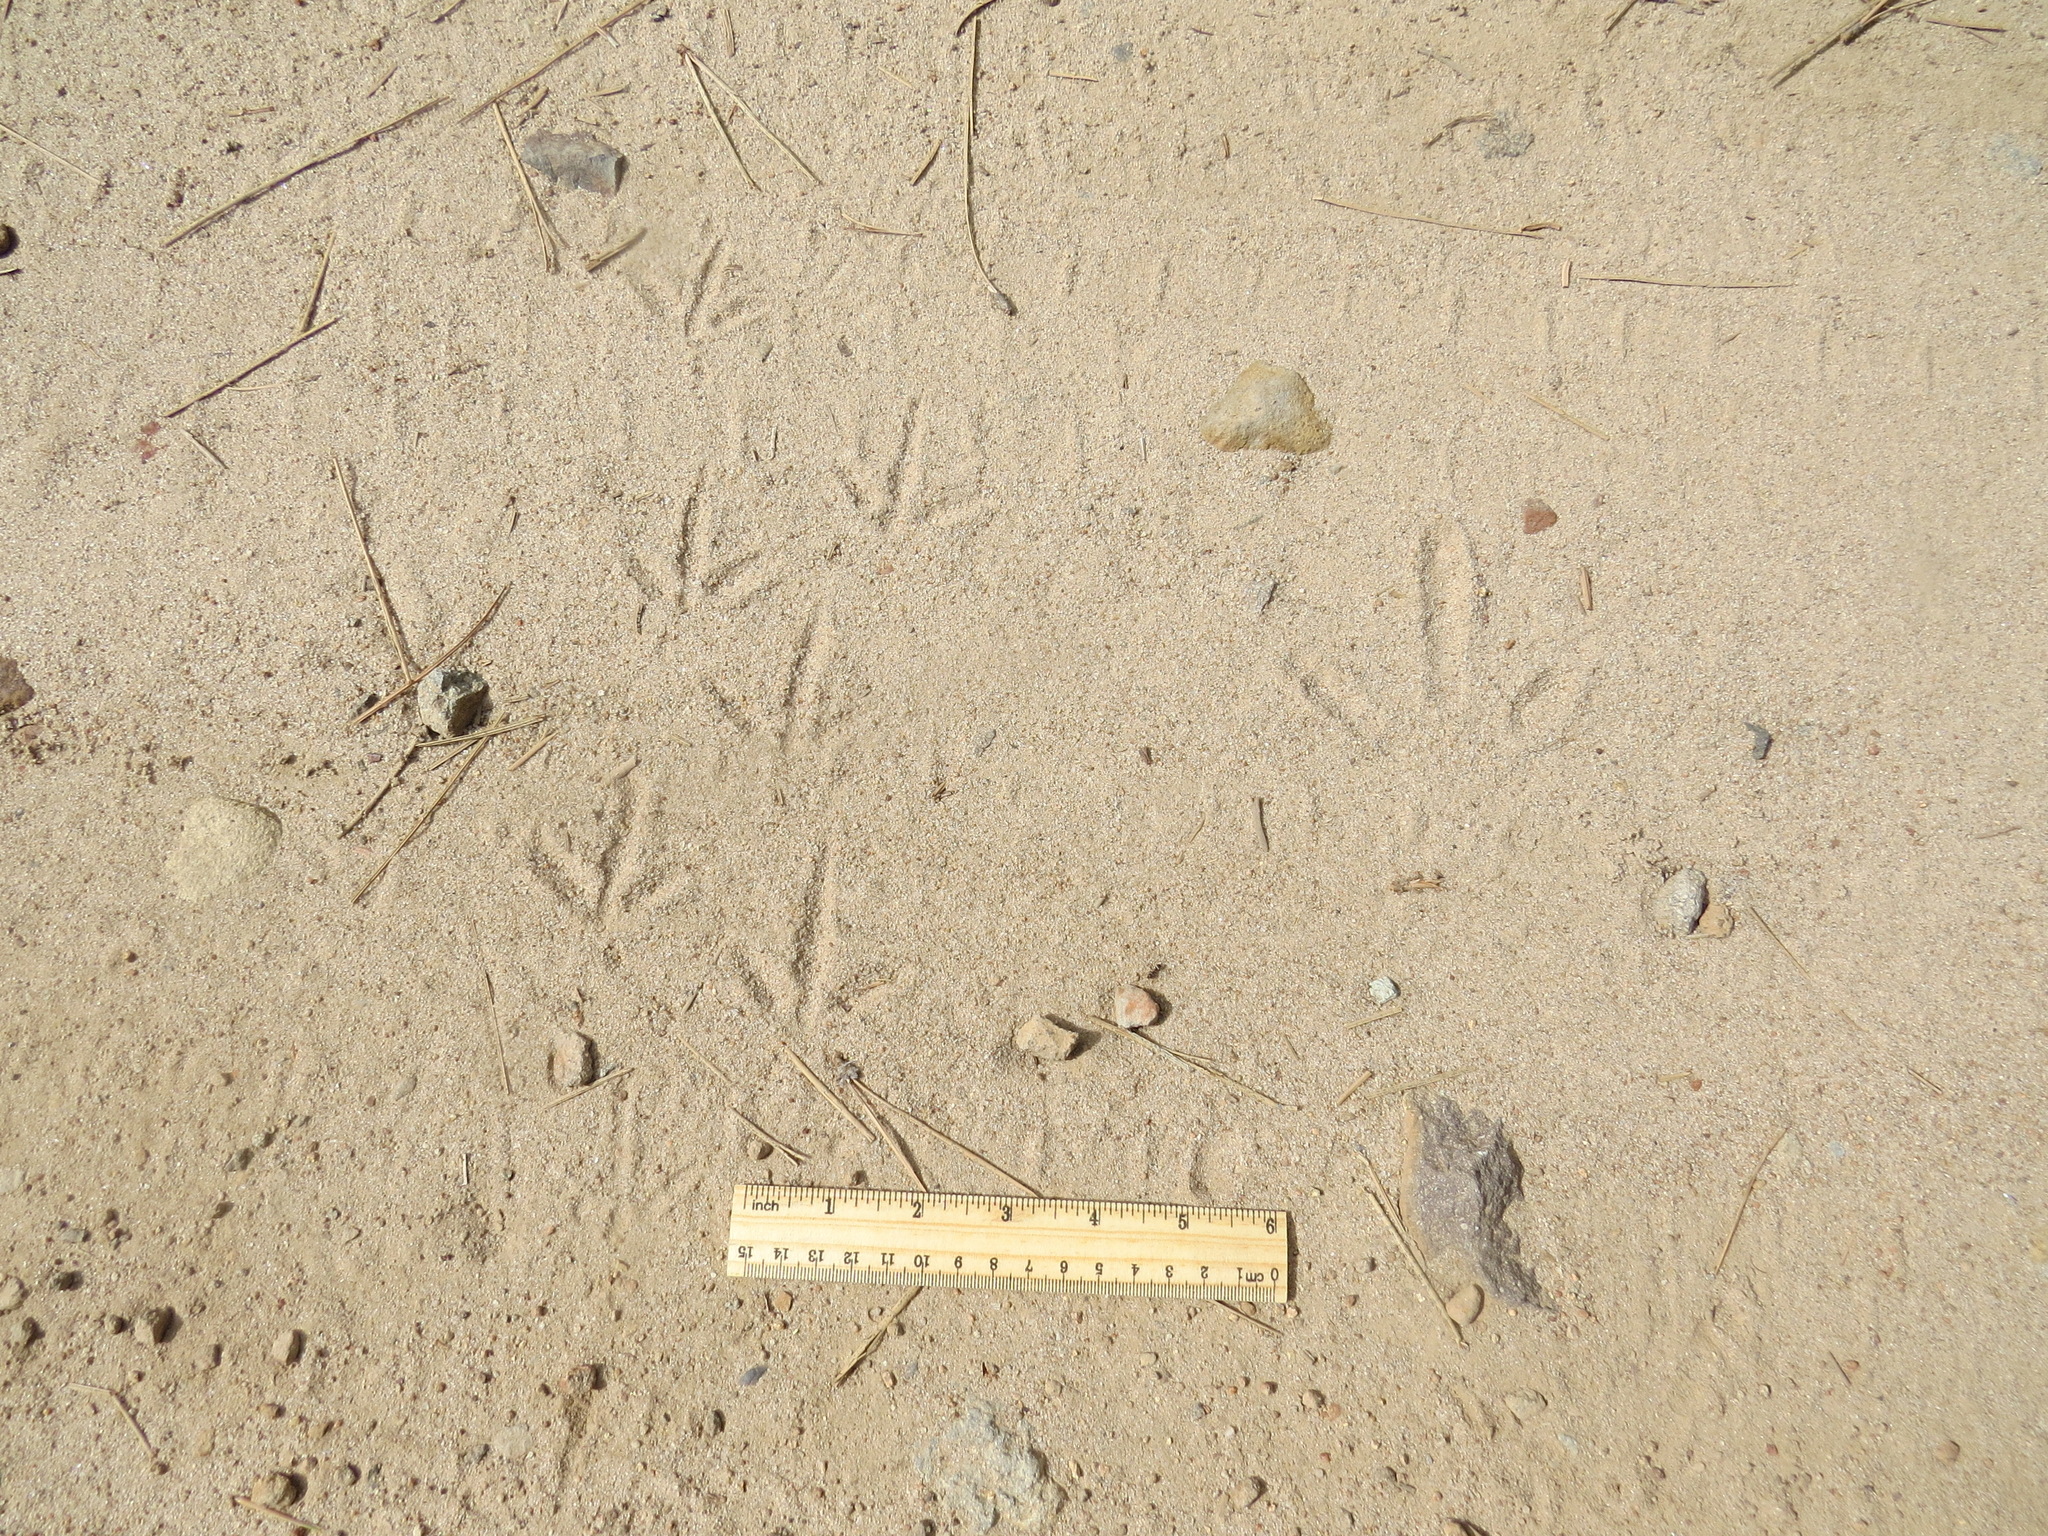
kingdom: Animalia
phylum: Chordata
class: Aves
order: Galliformes
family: Phasianidae
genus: Meleagris
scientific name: Meleagris gallopavo
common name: Wild turkey
